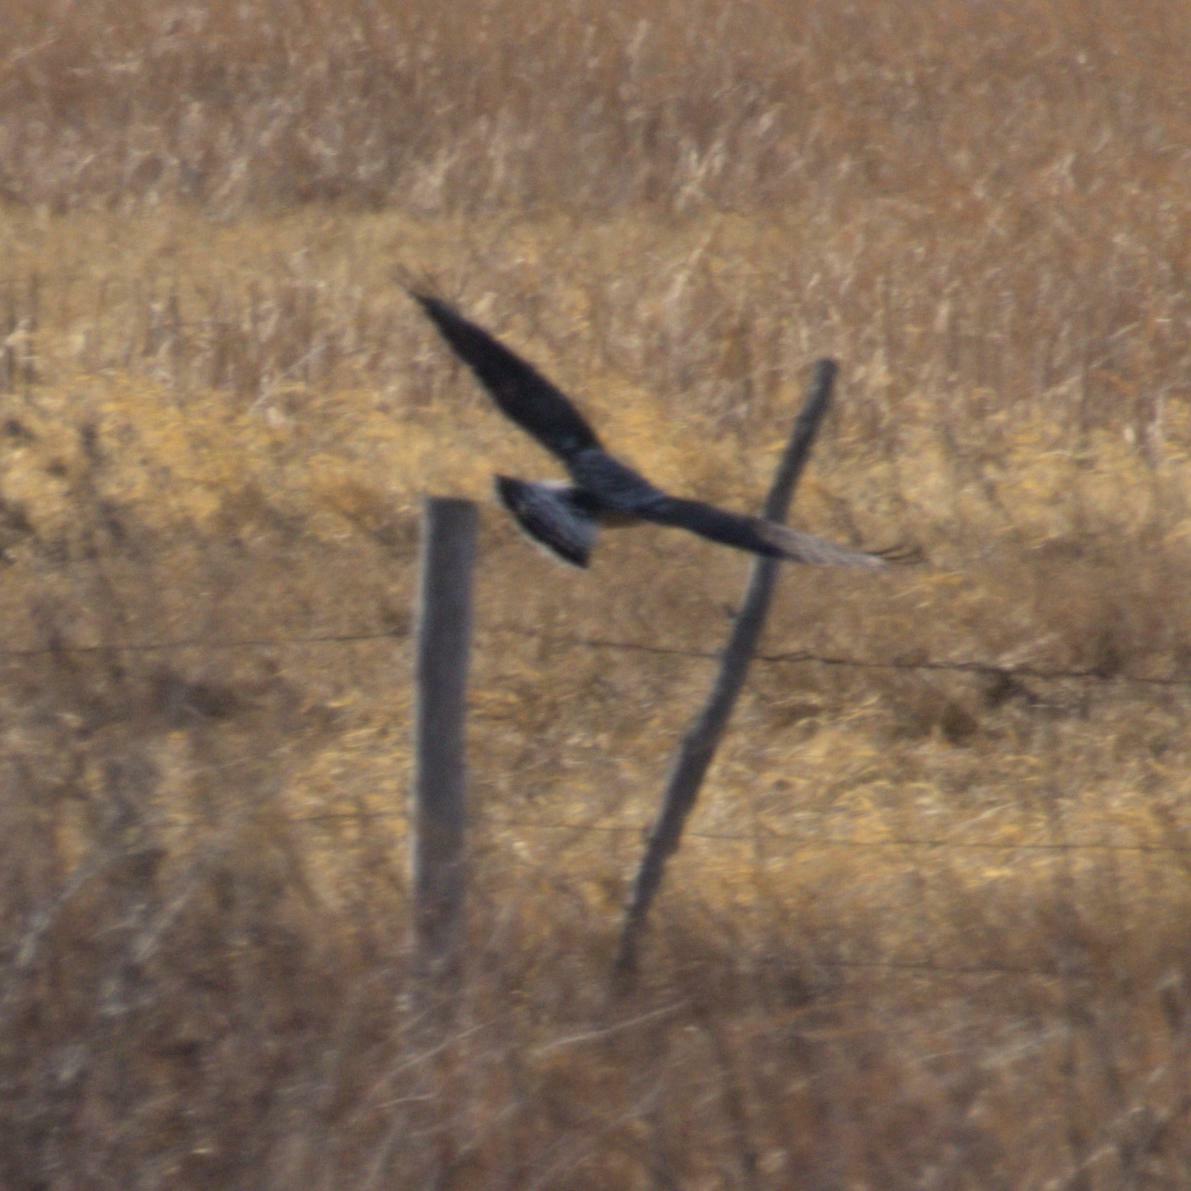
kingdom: Animalia
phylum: Chordata
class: Aves
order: Accipitriformes
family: Accipitridae
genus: Buteo
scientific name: Buteo lagopus
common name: Rough-legged buzzard
